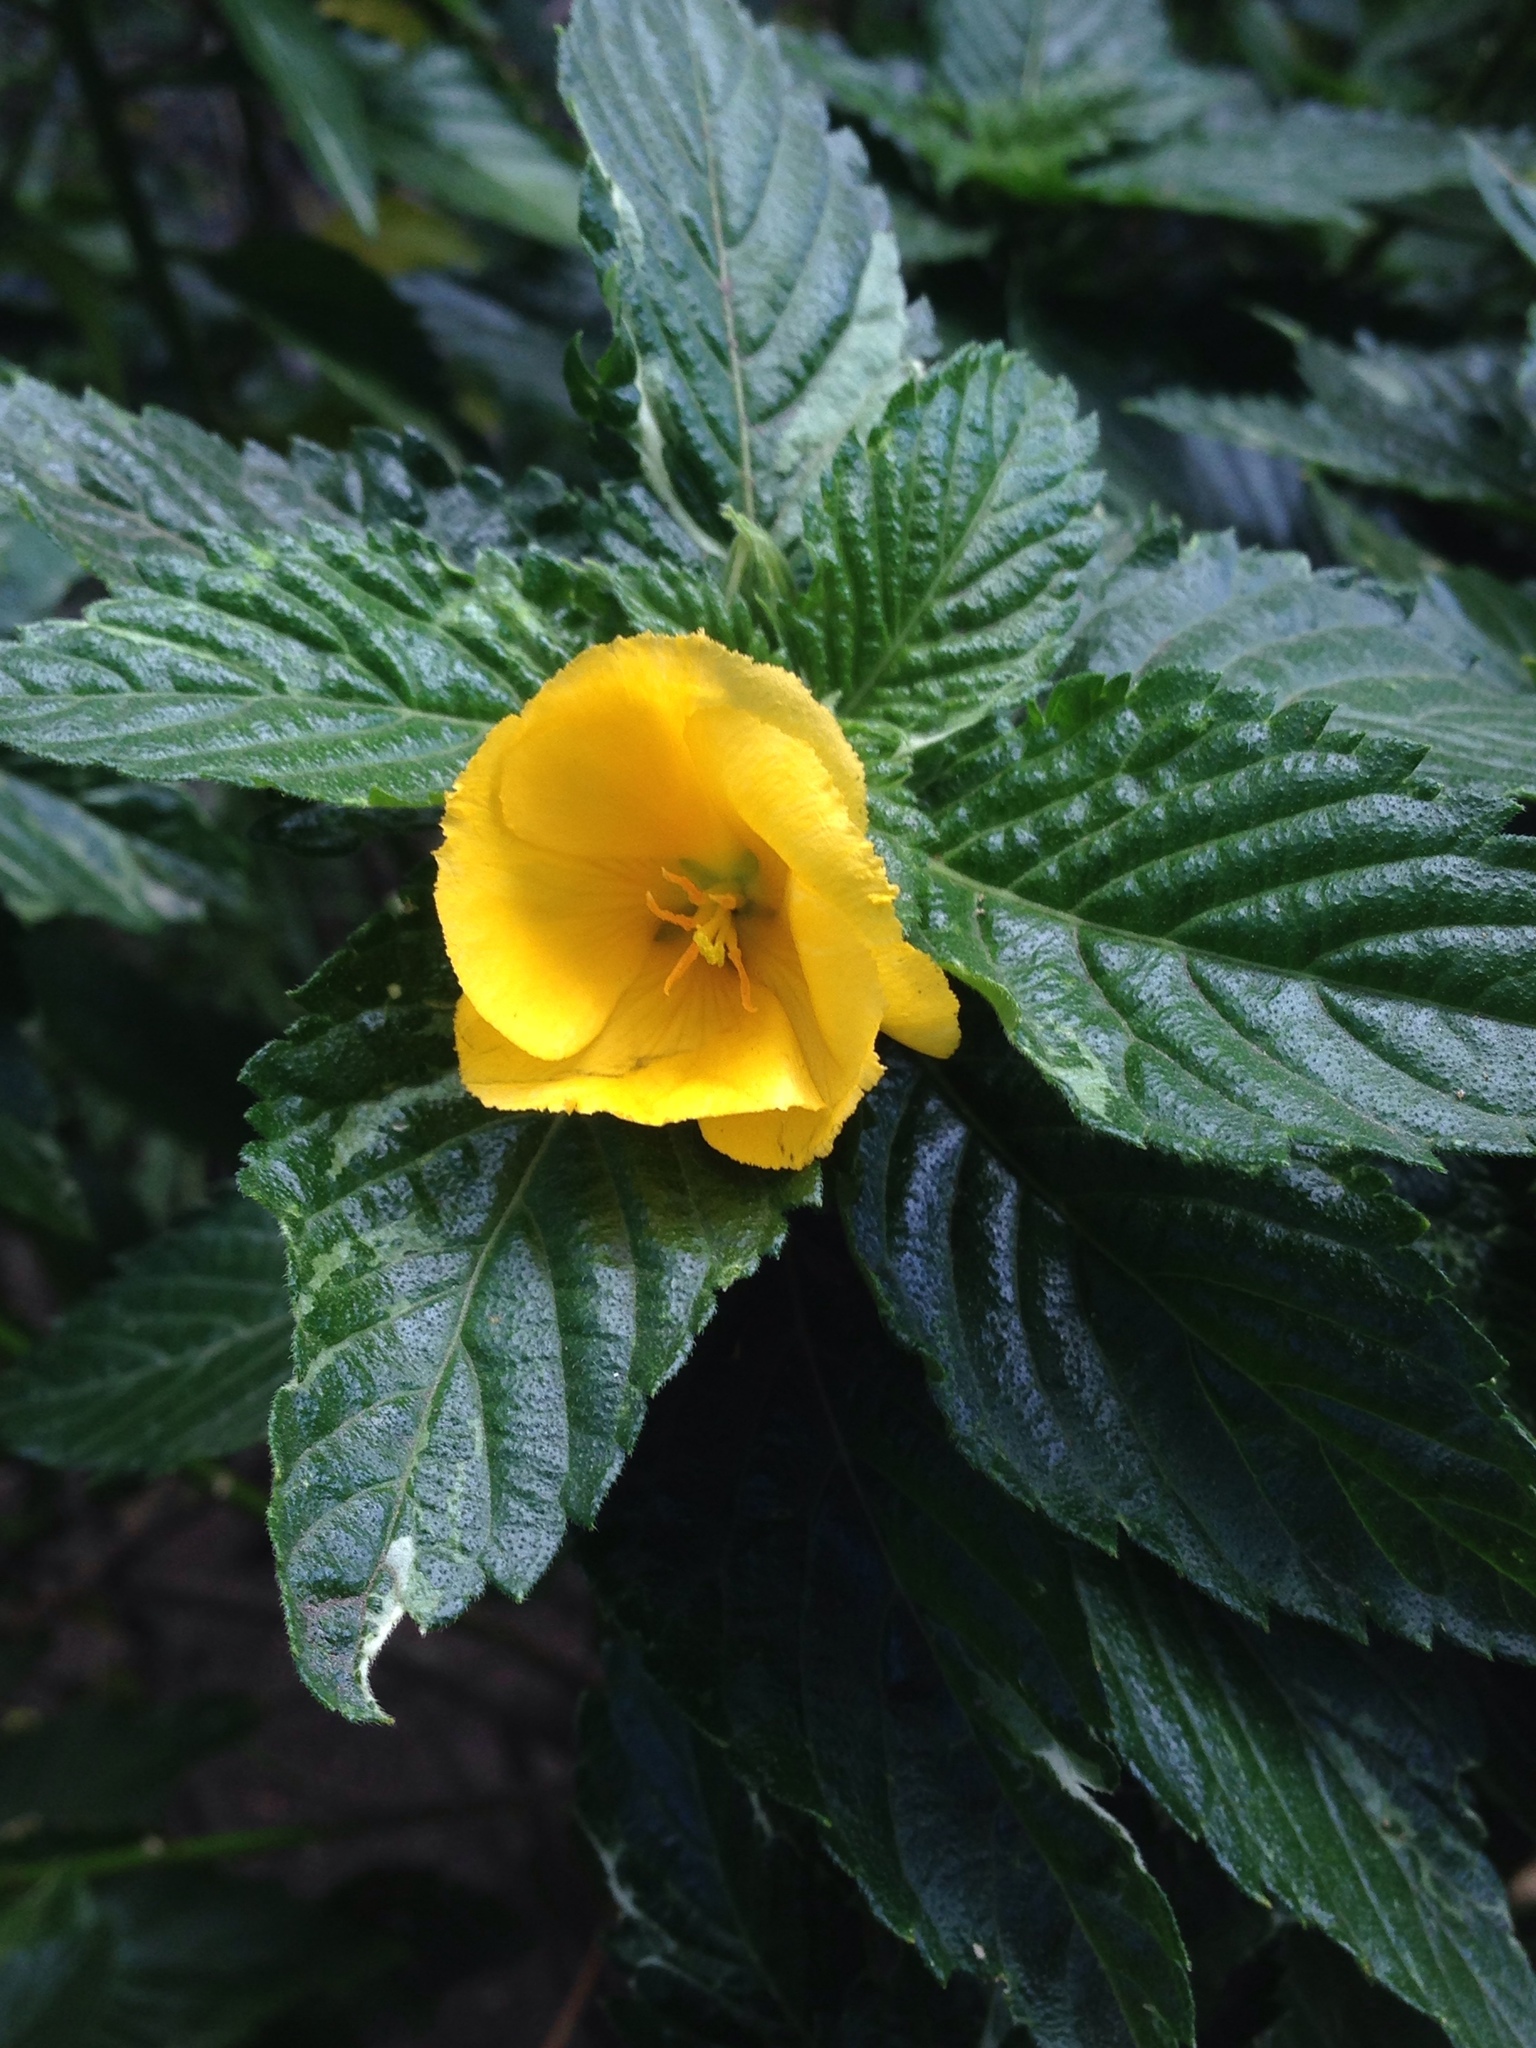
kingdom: Plantae
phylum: Tracheophyta
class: Magnoliopsida
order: Malpighiales
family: Turneraceae
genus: Turnera
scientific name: Turnera ulmifolia
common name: Ramgoat dashalong
